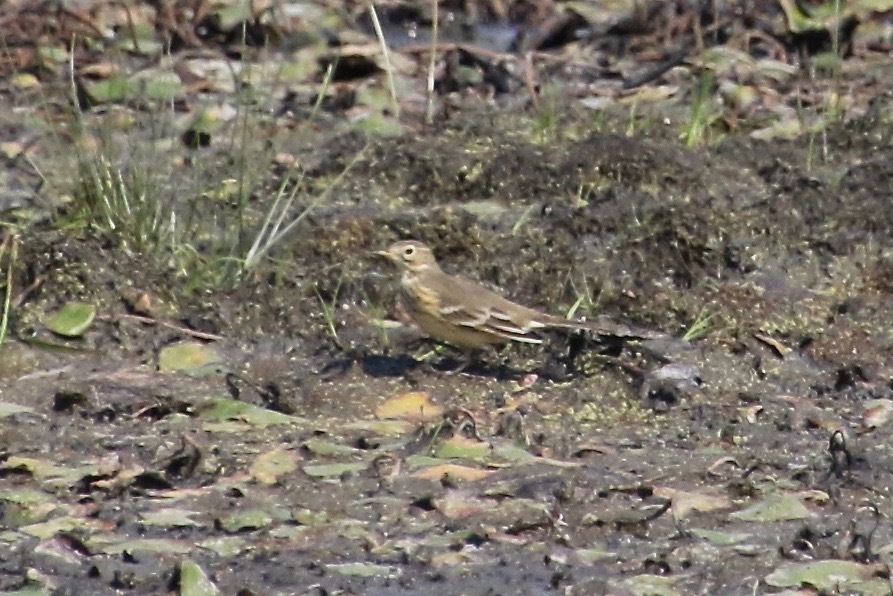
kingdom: Animalia
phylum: Chordata
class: Aves
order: Passeriformes
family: Motacillidae
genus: Anthus
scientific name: Anthus rubescens
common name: Buff-bellied pipit
